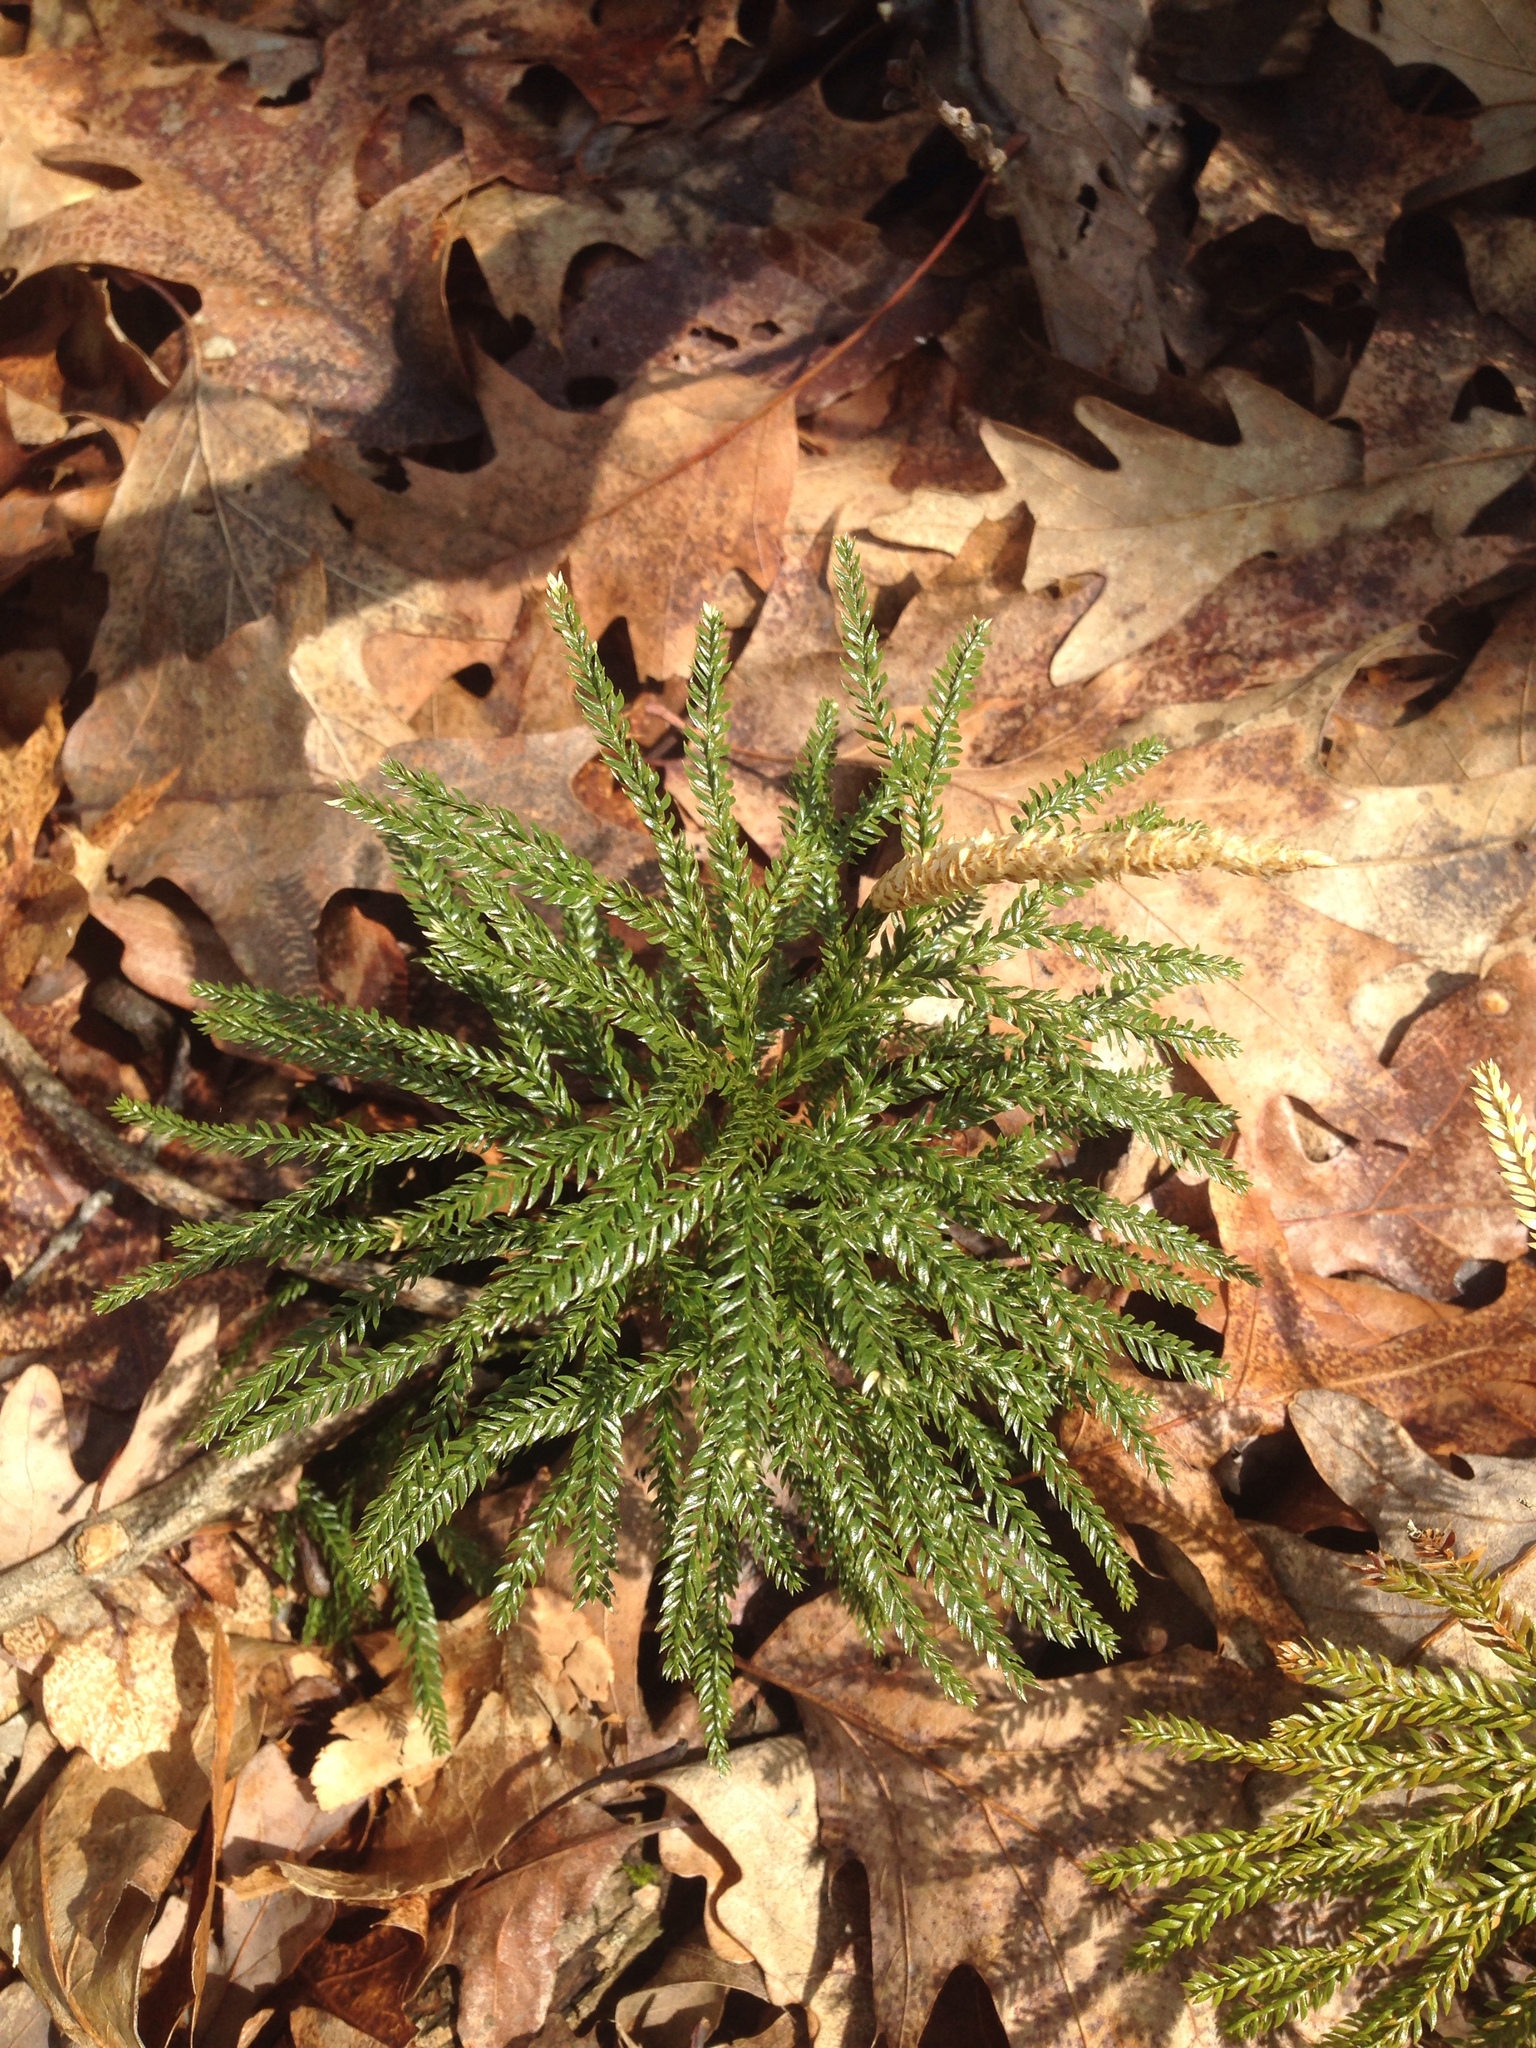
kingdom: Plantae
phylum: Tracheophyta
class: Lycopodiopsida
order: Lycopodiales
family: Lycopodiaceae
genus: Dendrolycopodium
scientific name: Dendrolycopodium obscurum
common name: Common ground-pine
